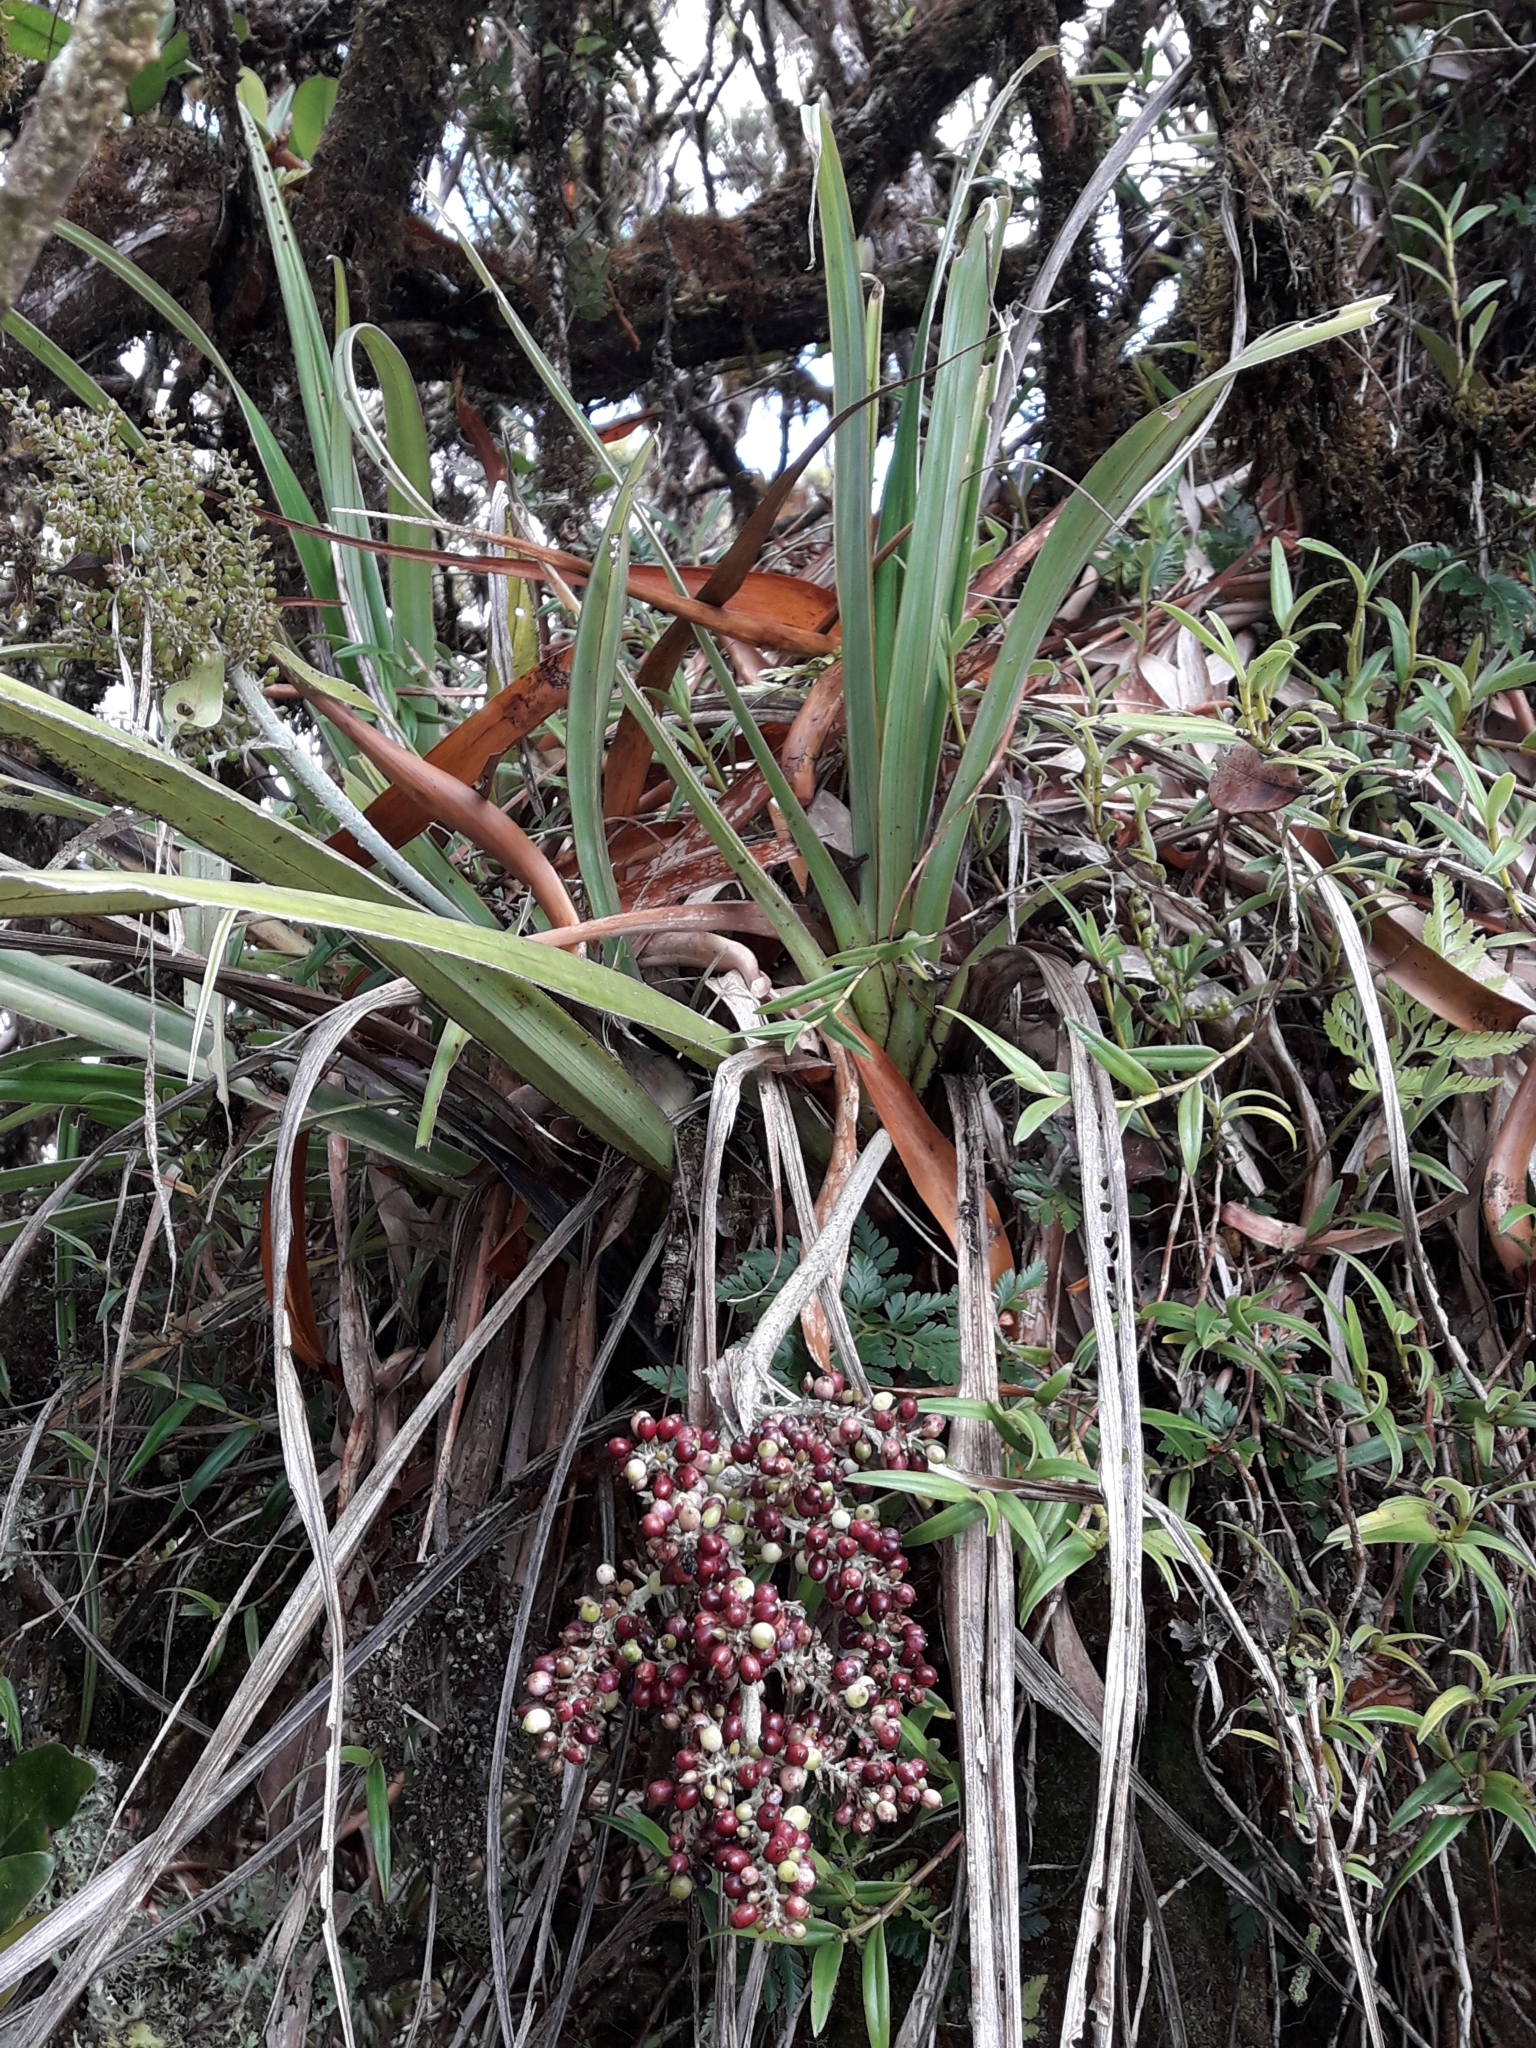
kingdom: Plantae
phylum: Tracheophyta
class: Liliopsida
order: Asparagales
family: Asteliaceae
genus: Astelia
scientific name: Astelia neocaledonica
